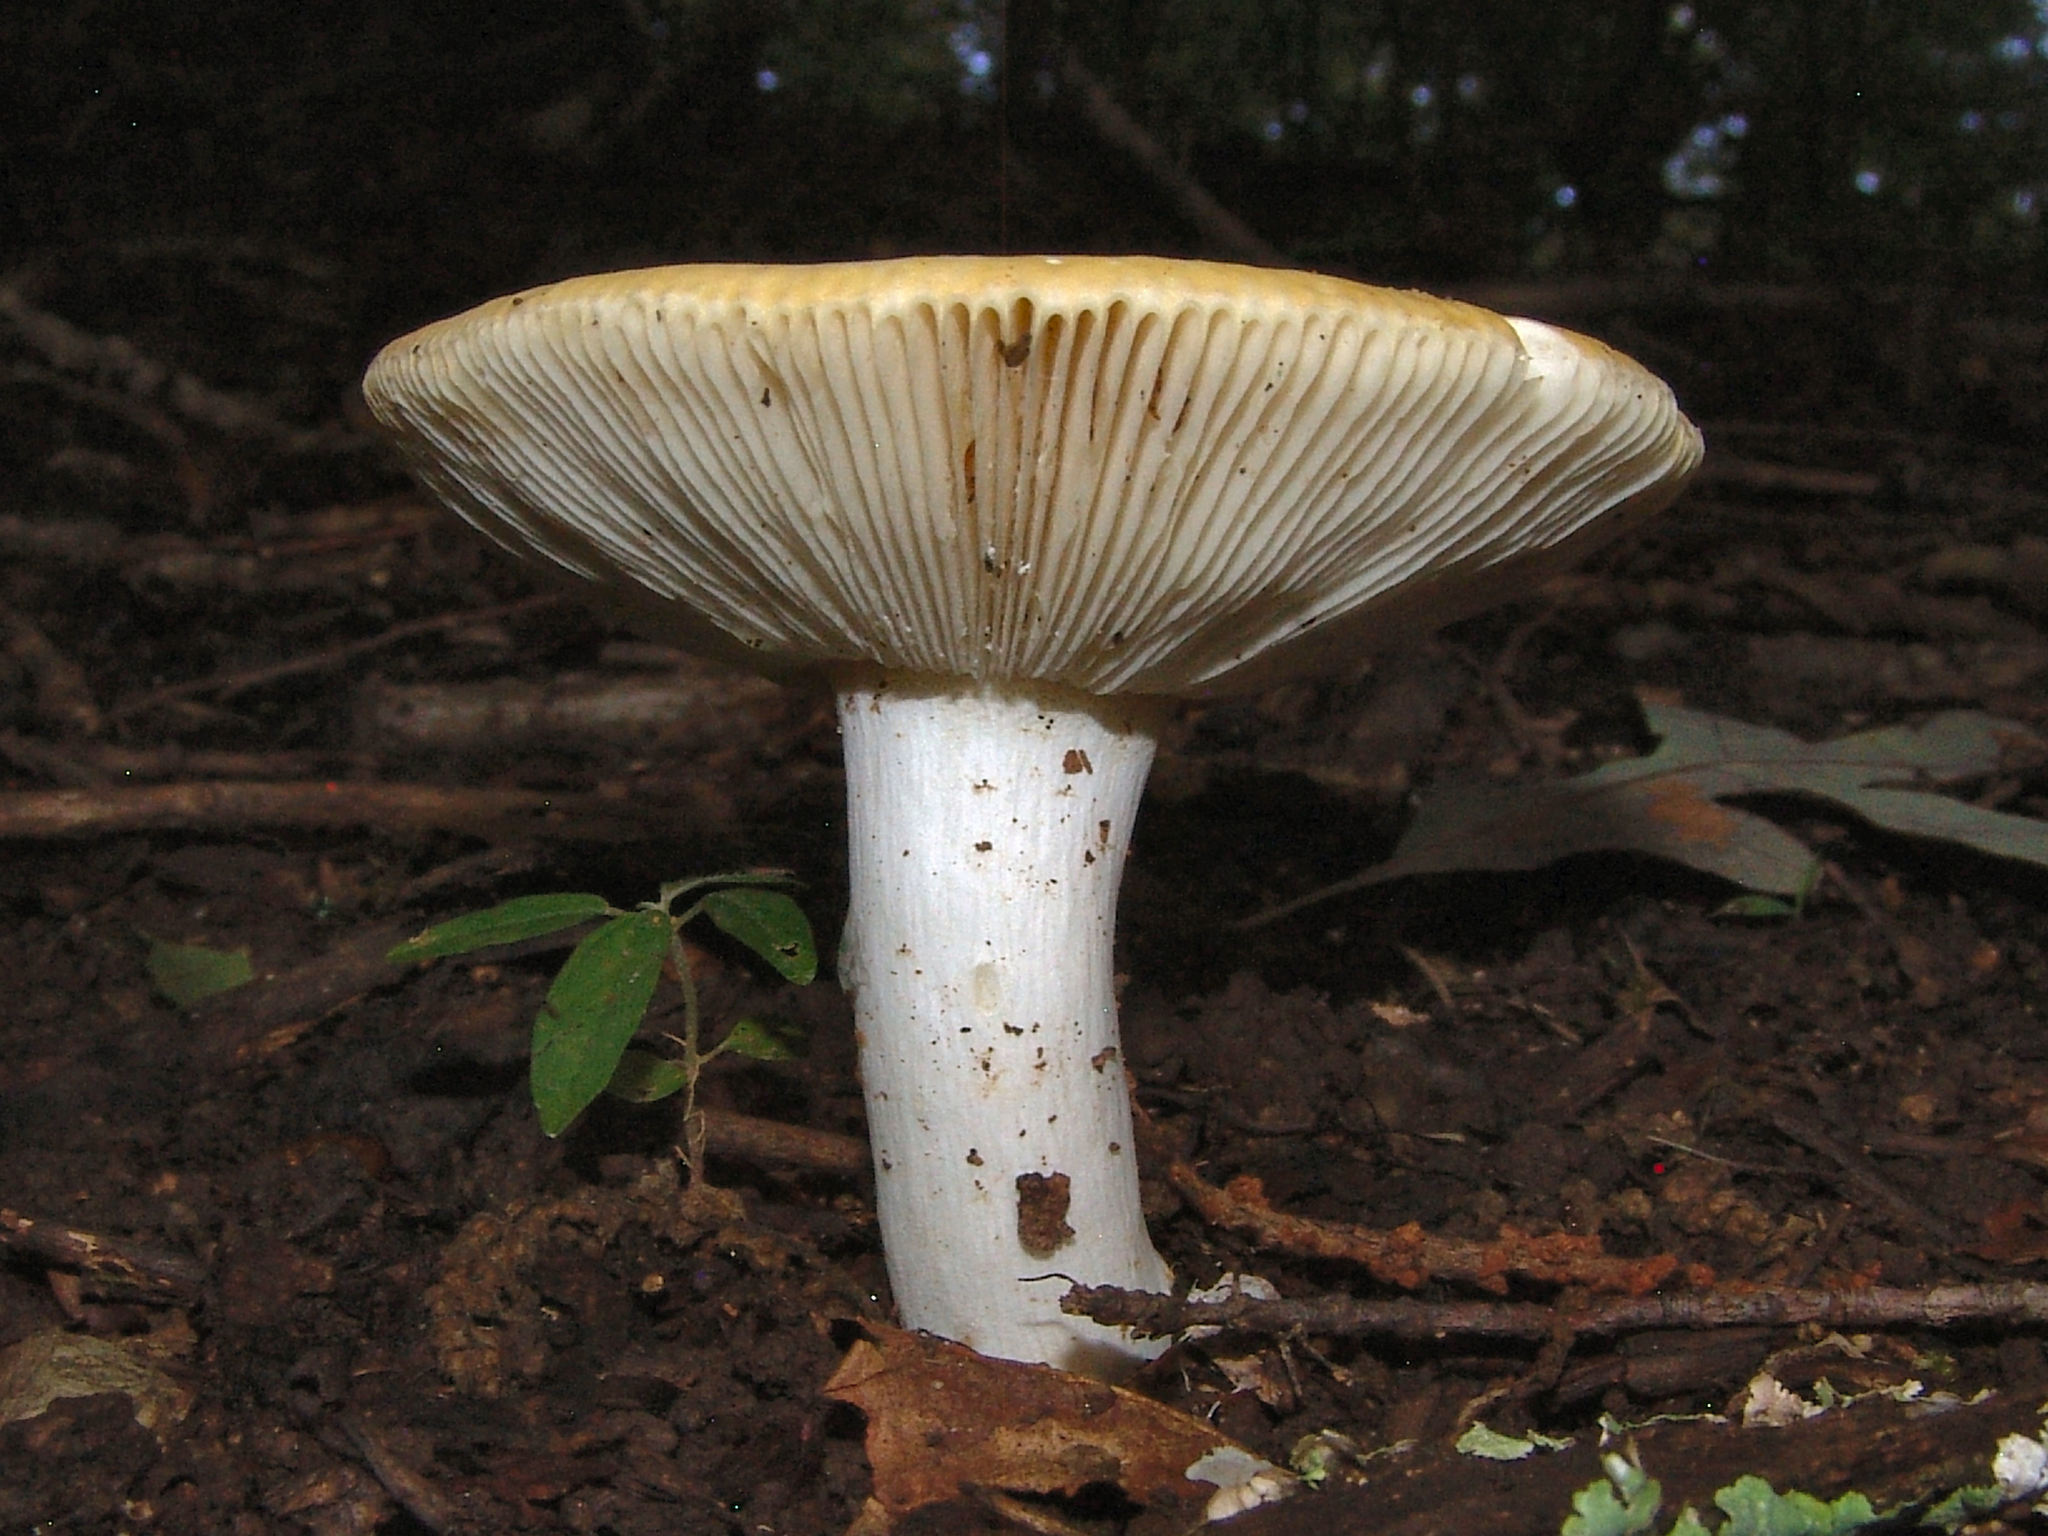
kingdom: Fungi
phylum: Basidiomycota
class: Agaricomycetes
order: Russulales
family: Russulaceae
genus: Russula
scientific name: Russula
